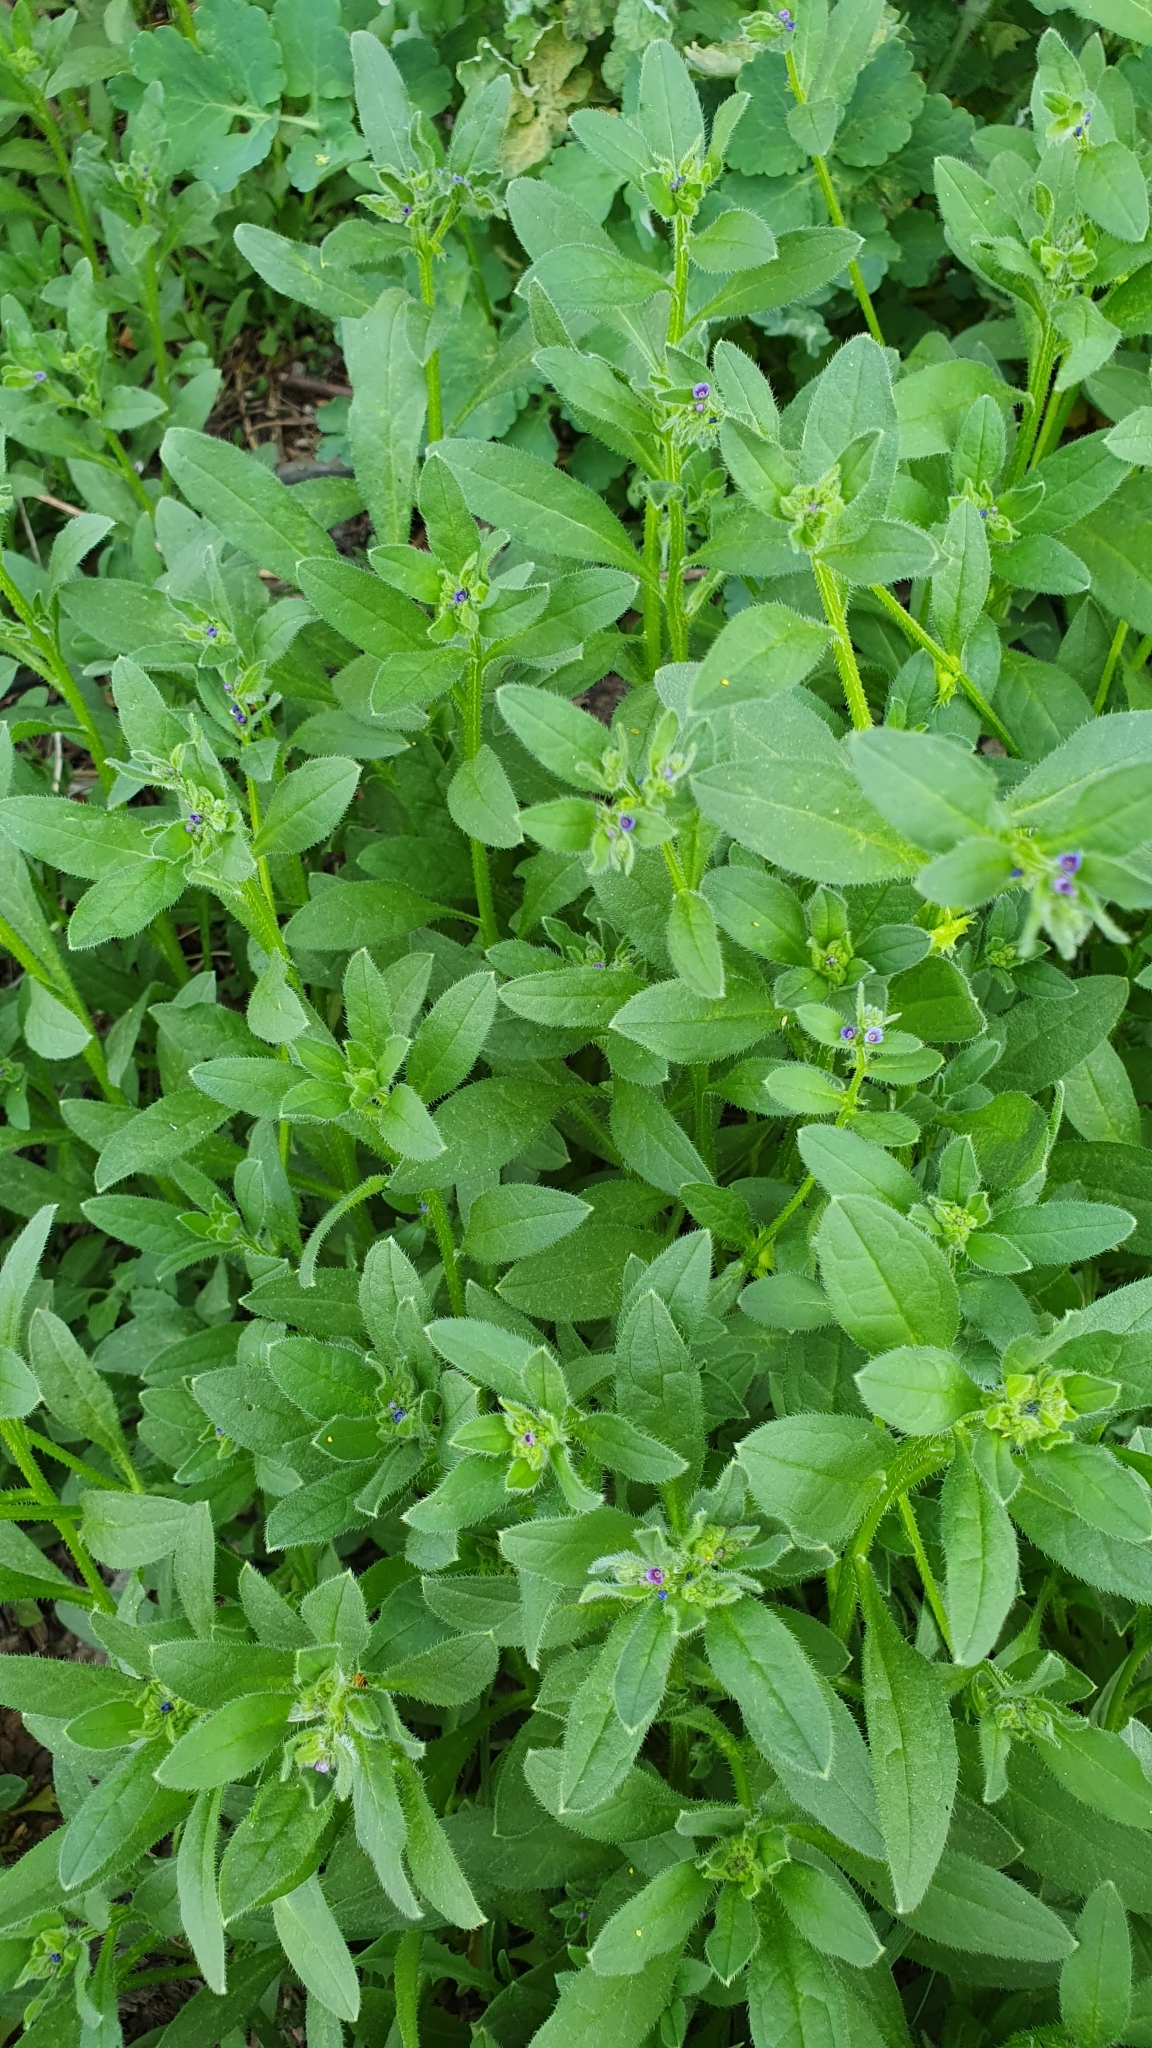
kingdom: Plantae
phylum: Tracheophyta
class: Magnoliopsida
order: Boraginales
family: Boraginaceae
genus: Asperugo
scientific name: Asperugo procumbens
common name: Madwort
